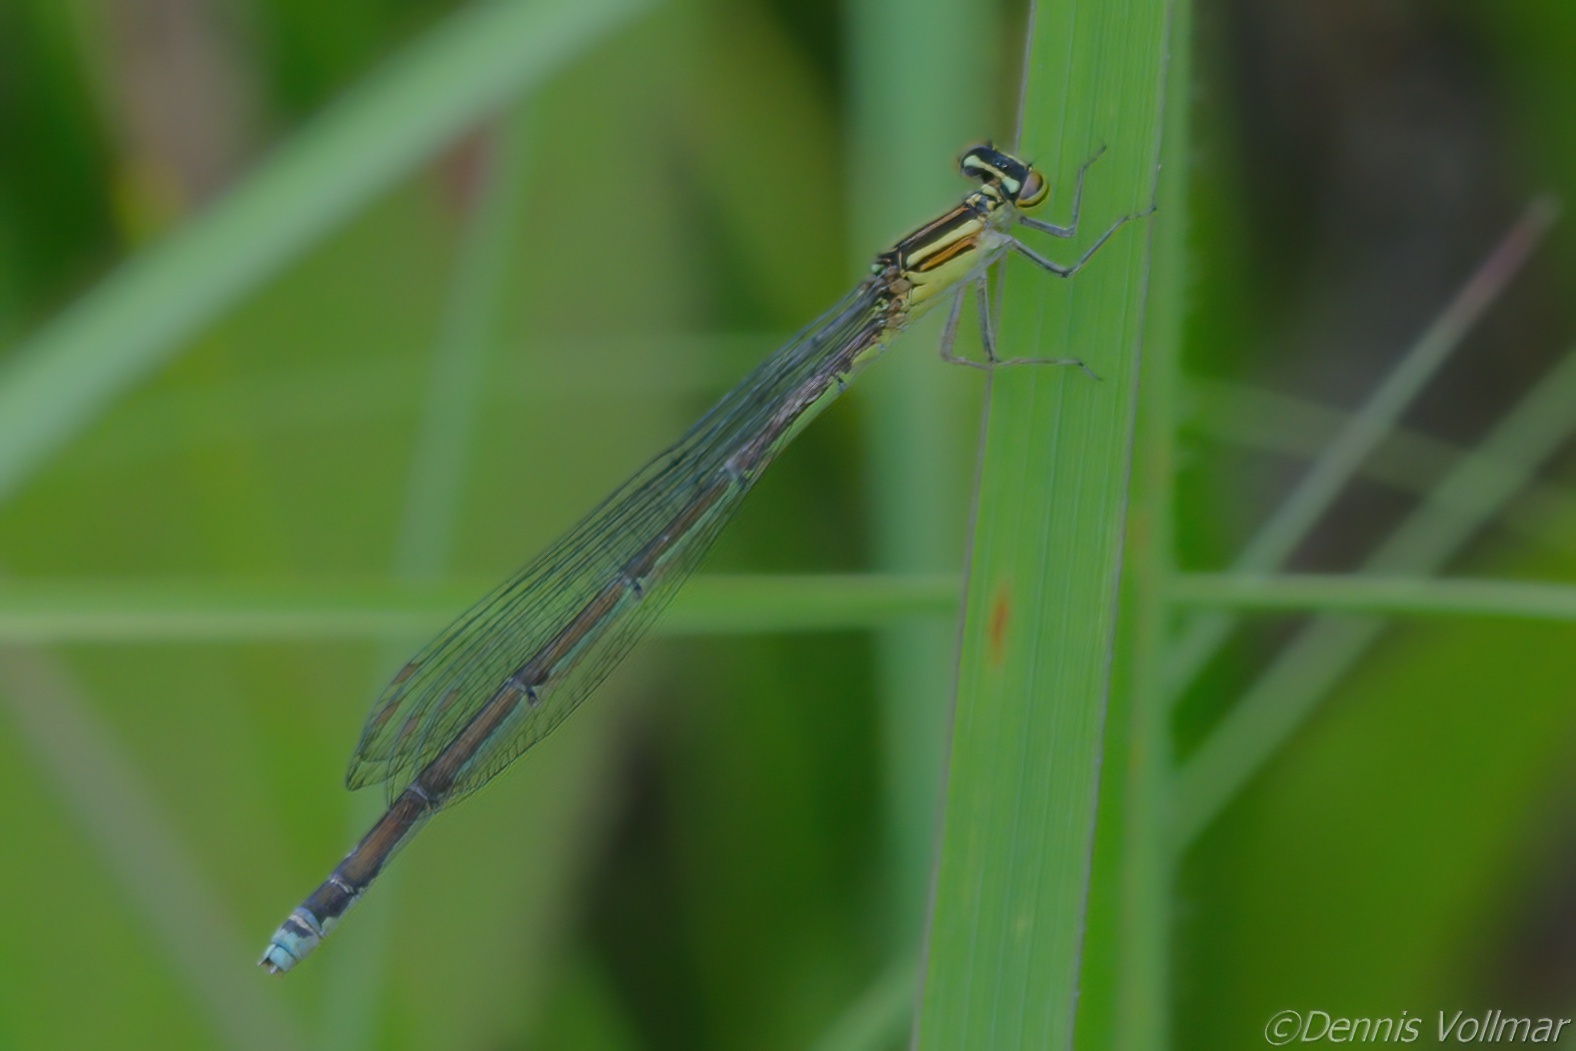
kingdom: Animalia
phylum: Arthropoda
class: Insecta
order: Odonata
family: Coenagrionidae
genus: Enallagma
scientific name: Enallagma exsulans
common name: Stream bluet
